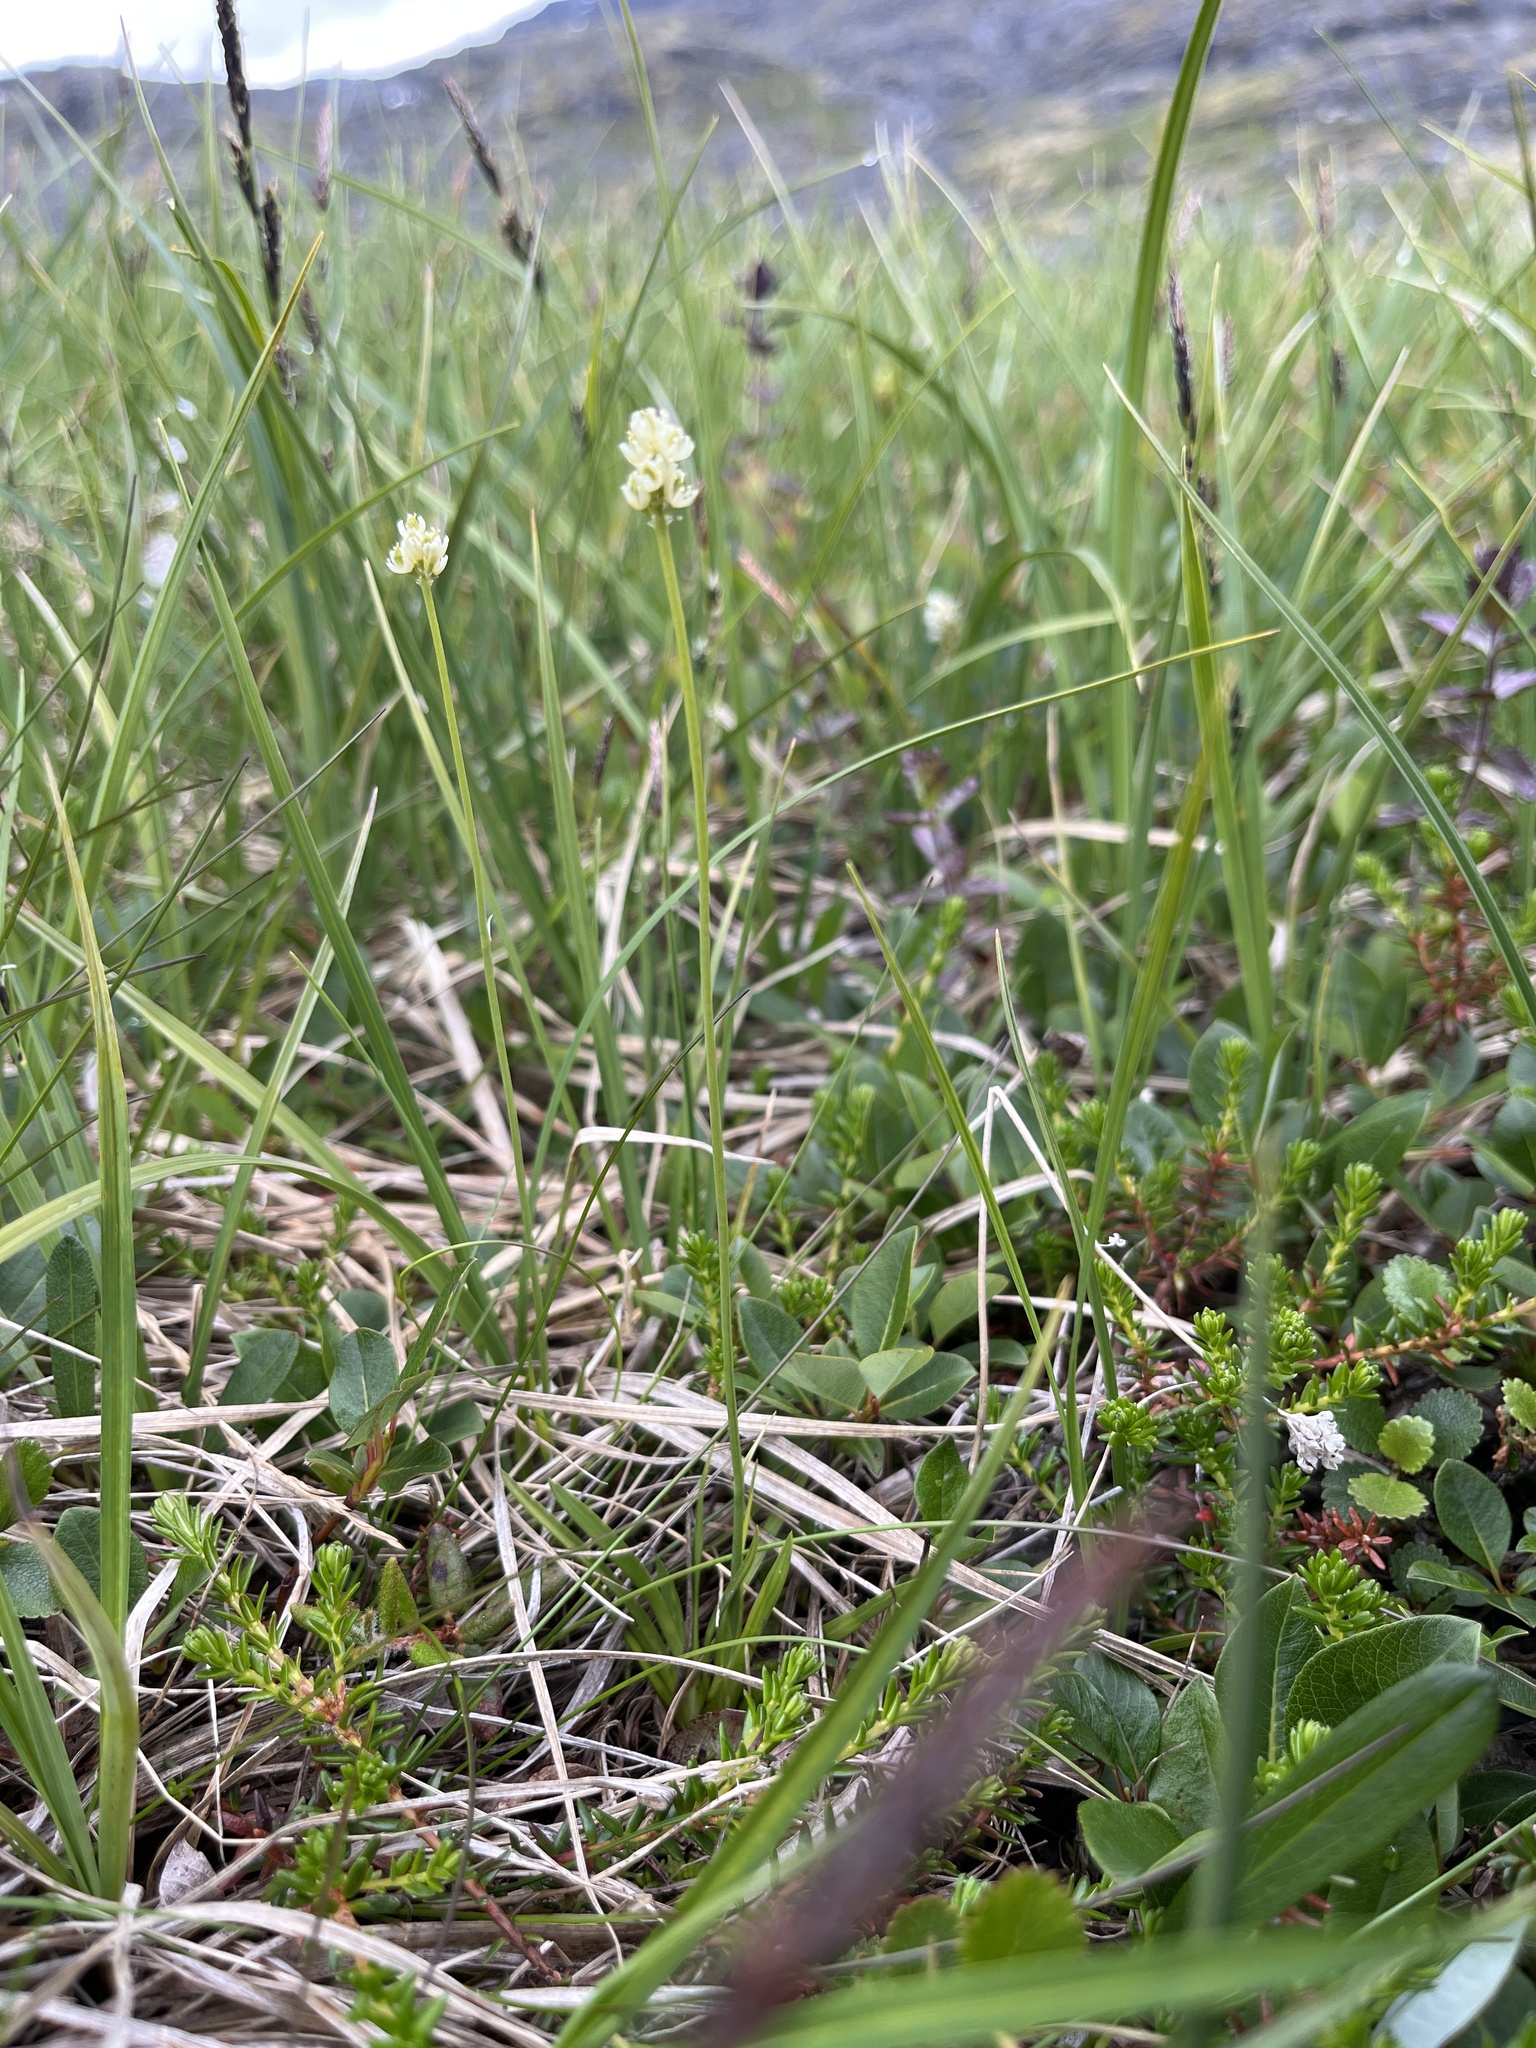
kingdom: Plantae
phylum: Tracheophyta
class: Liliopsida
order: Alismatales
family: Tofieldiaceae
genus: Tofieldia
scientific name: Tofieldia pusilla
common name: Scottish false asphodel
